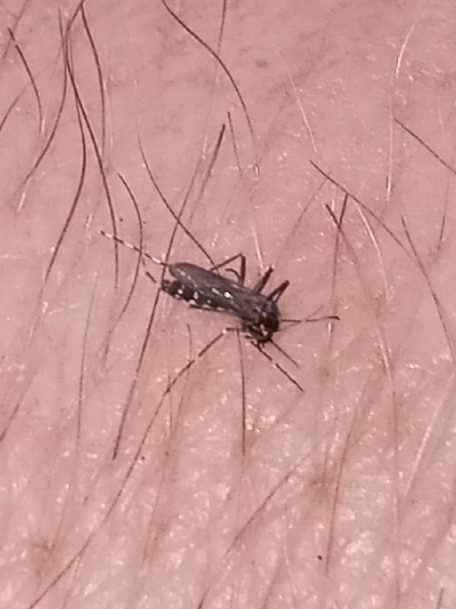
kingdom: Animalia
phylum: Arthropoda
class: Insecta
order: Diptera
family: Culicidae
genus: Aedes
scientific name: Aedes albopictus
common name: Tiger mosquito
